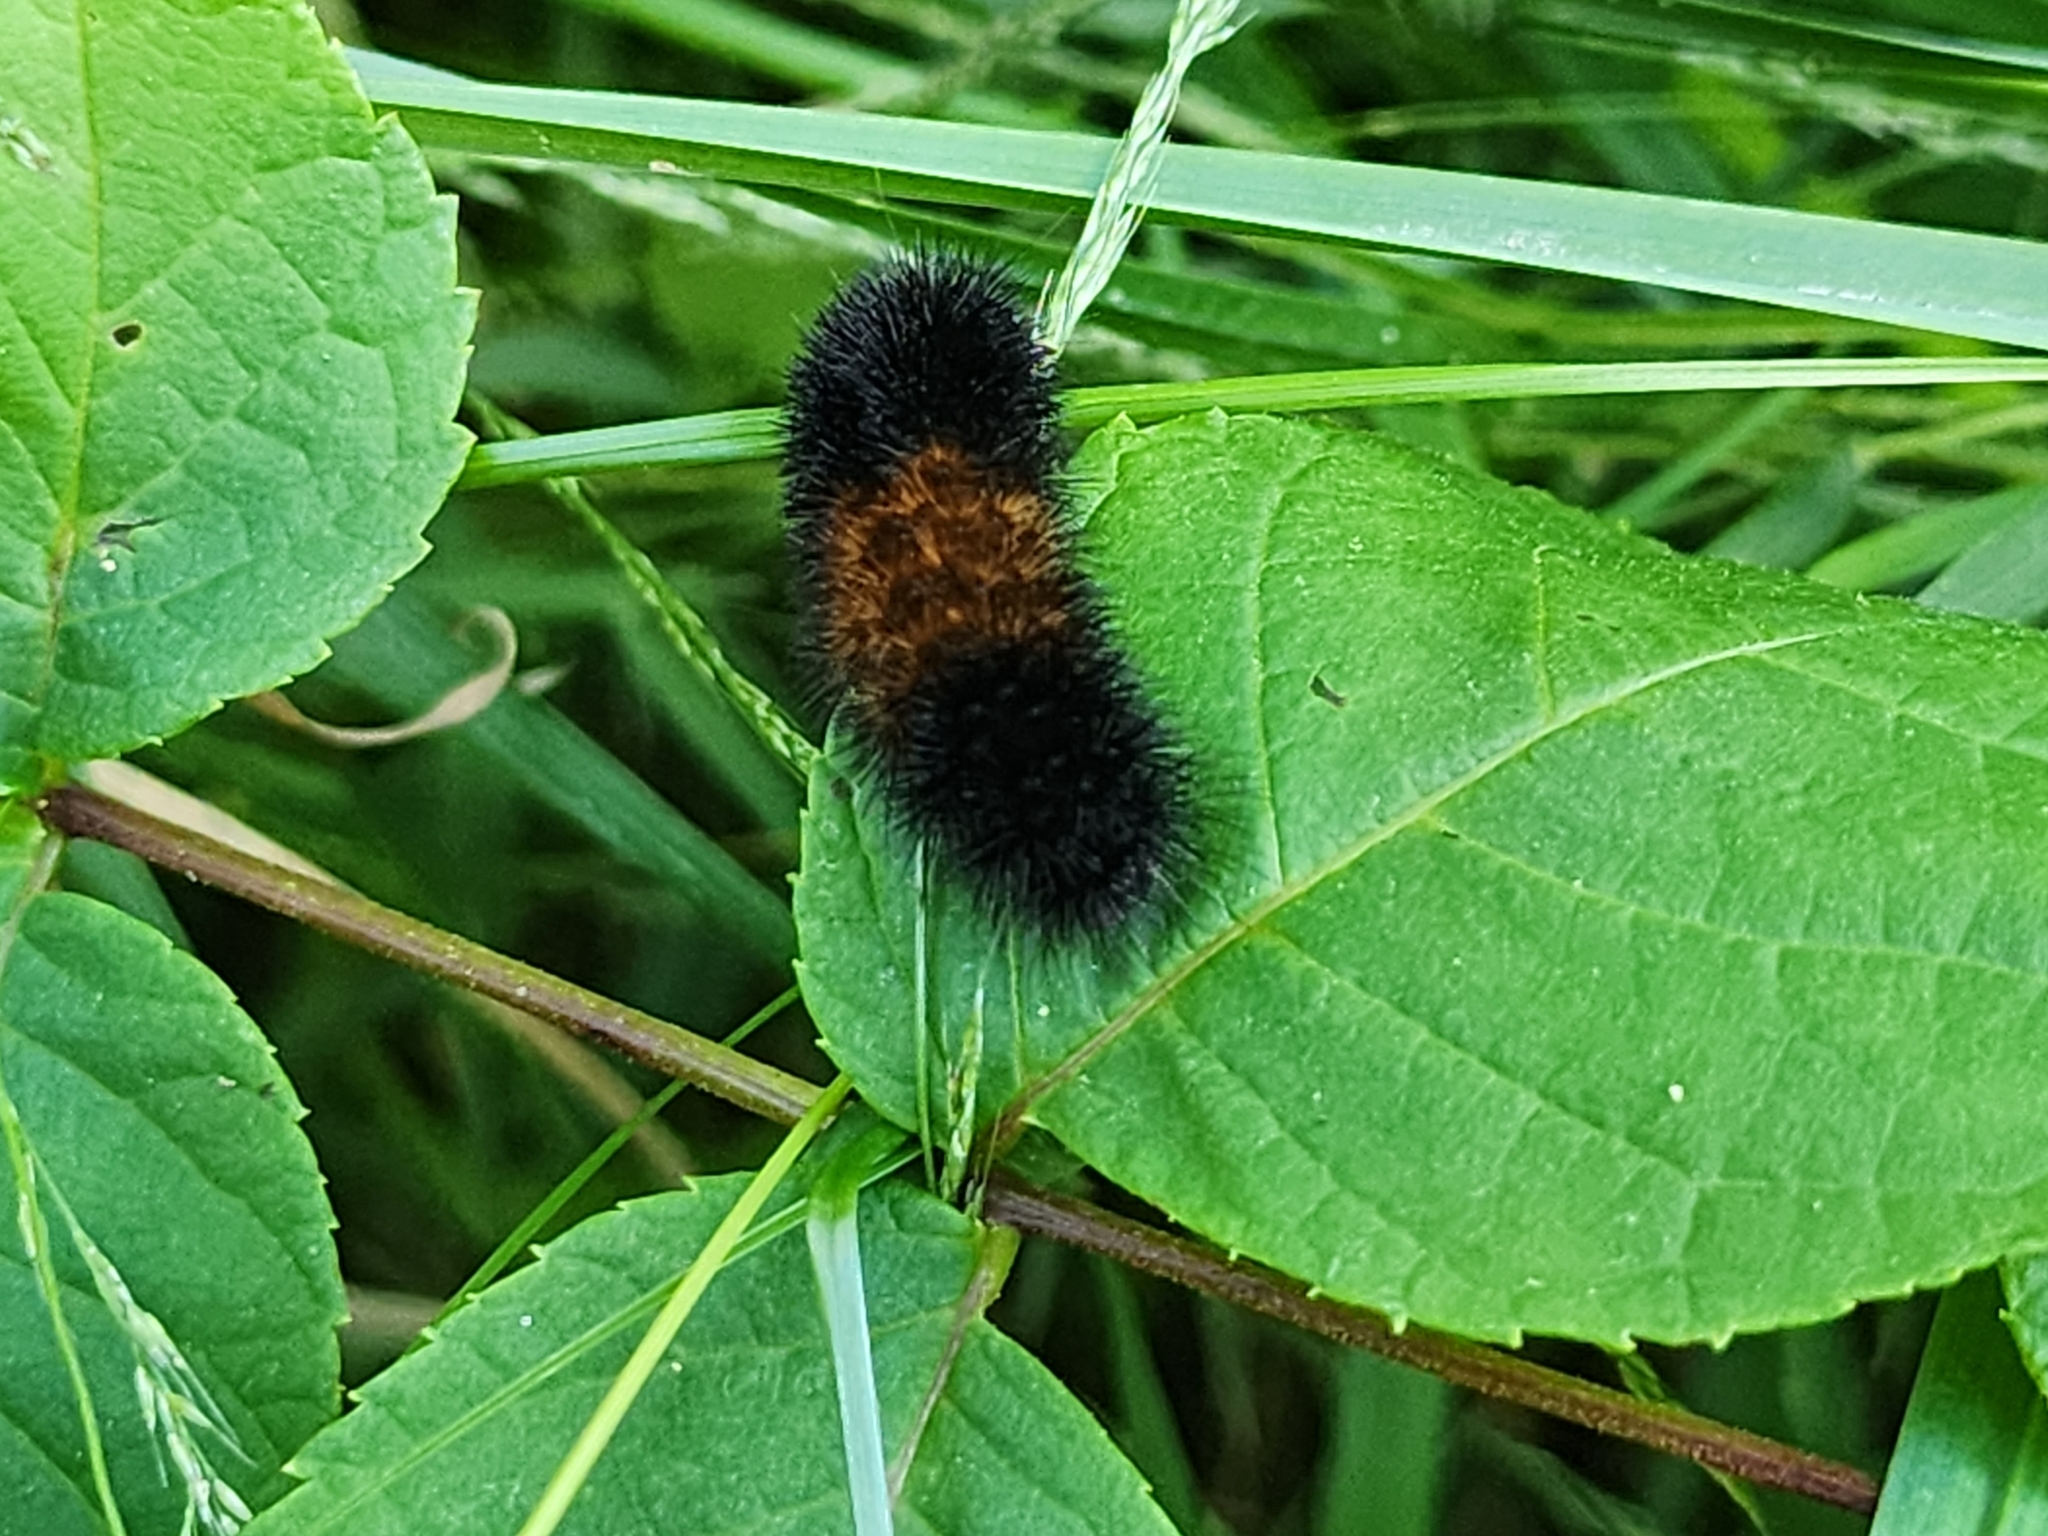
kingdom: Animalia
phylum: Arthropoda
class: Insecta
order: Lepidoptera
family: Erebidae
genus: Pyrrharctia
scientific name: Pyrrharctia isabella
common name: Isabella tiger moth
